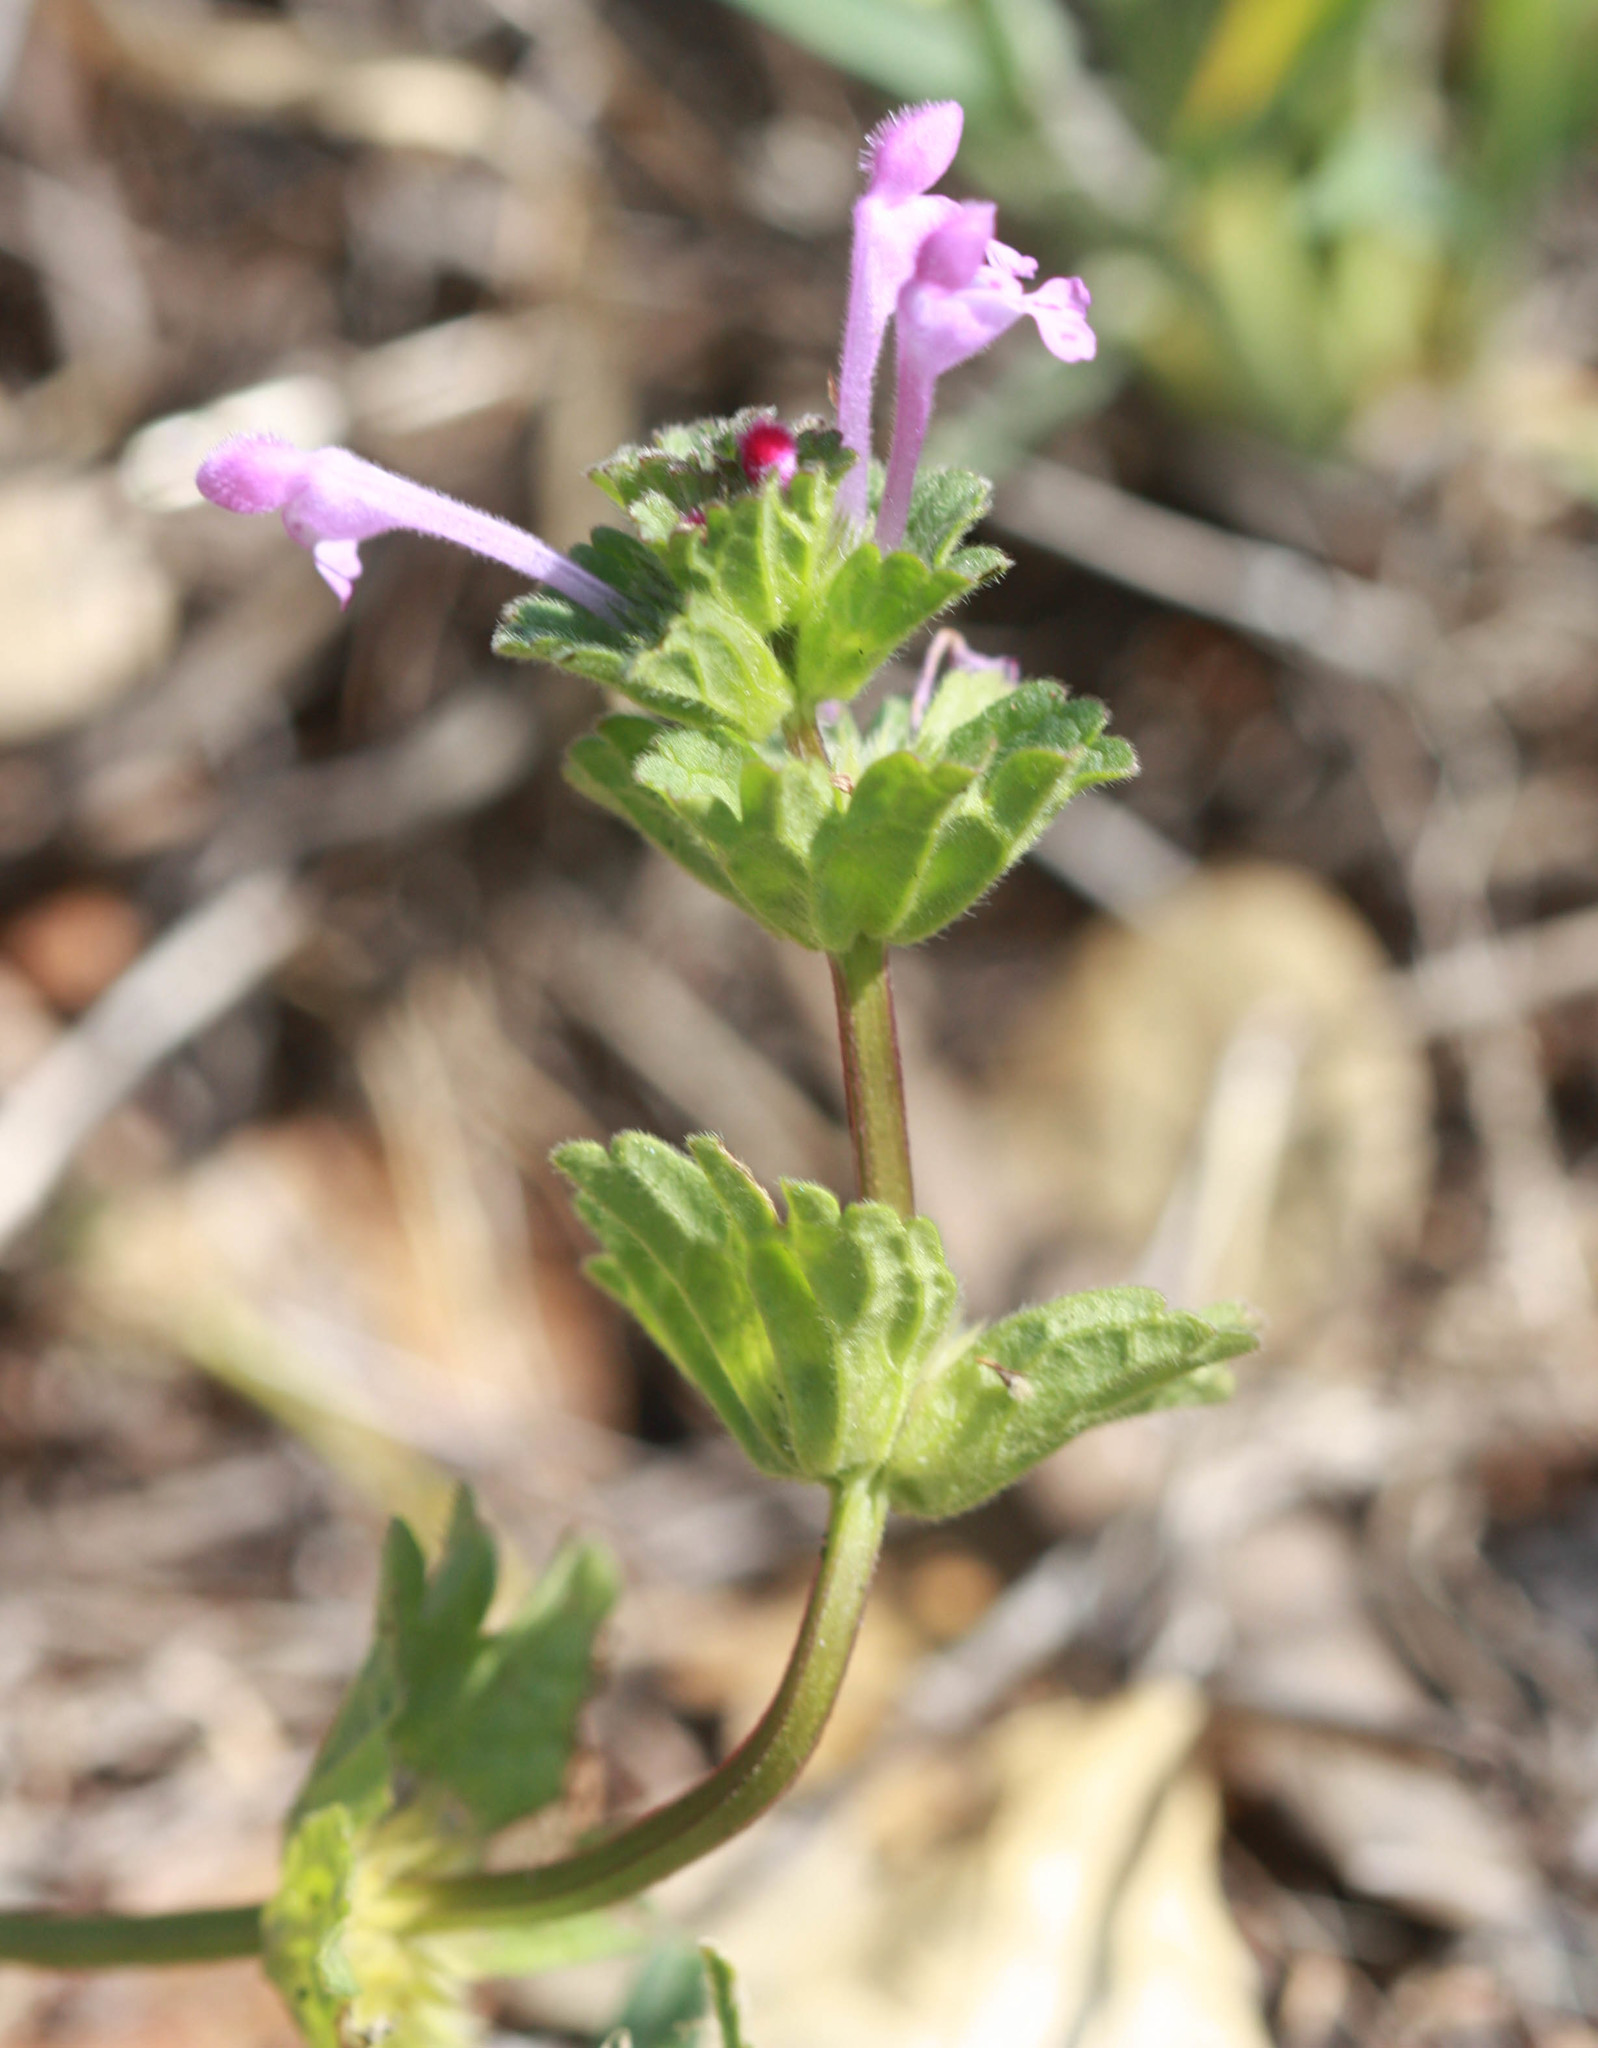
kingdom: Plantae
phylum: Tracheophyta
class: Magnoliopsida
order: Lamiales
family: Lamiaceae
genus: Lamium
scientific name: Lamium amplexicaule
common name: Henbit dead-nettle
